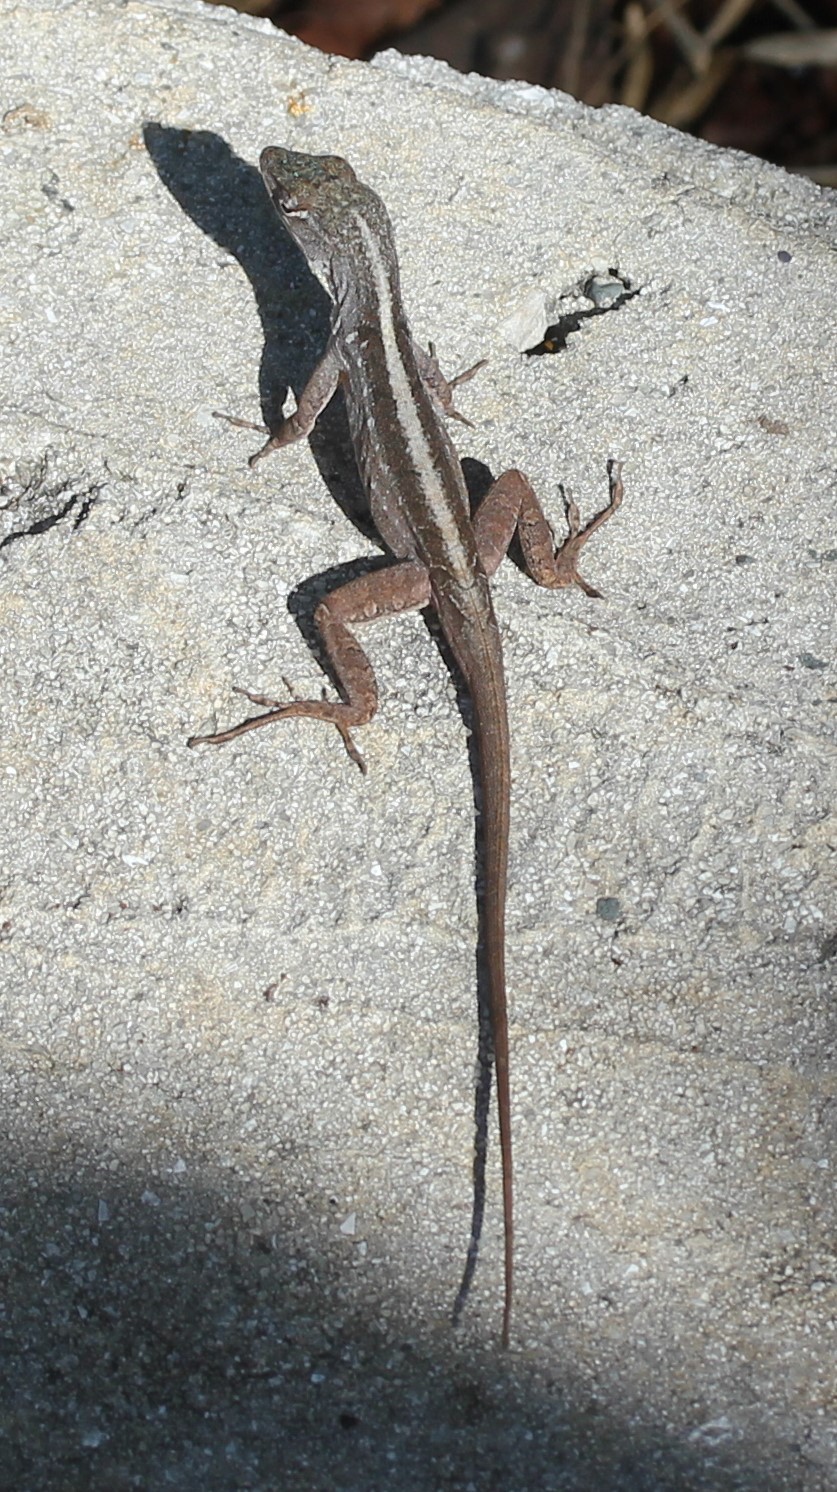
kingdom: Animalia
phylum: Chordata
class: Squamata
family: Dactyloidae
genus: Anolis
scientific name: Anolis sagrei
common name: Brown anole
